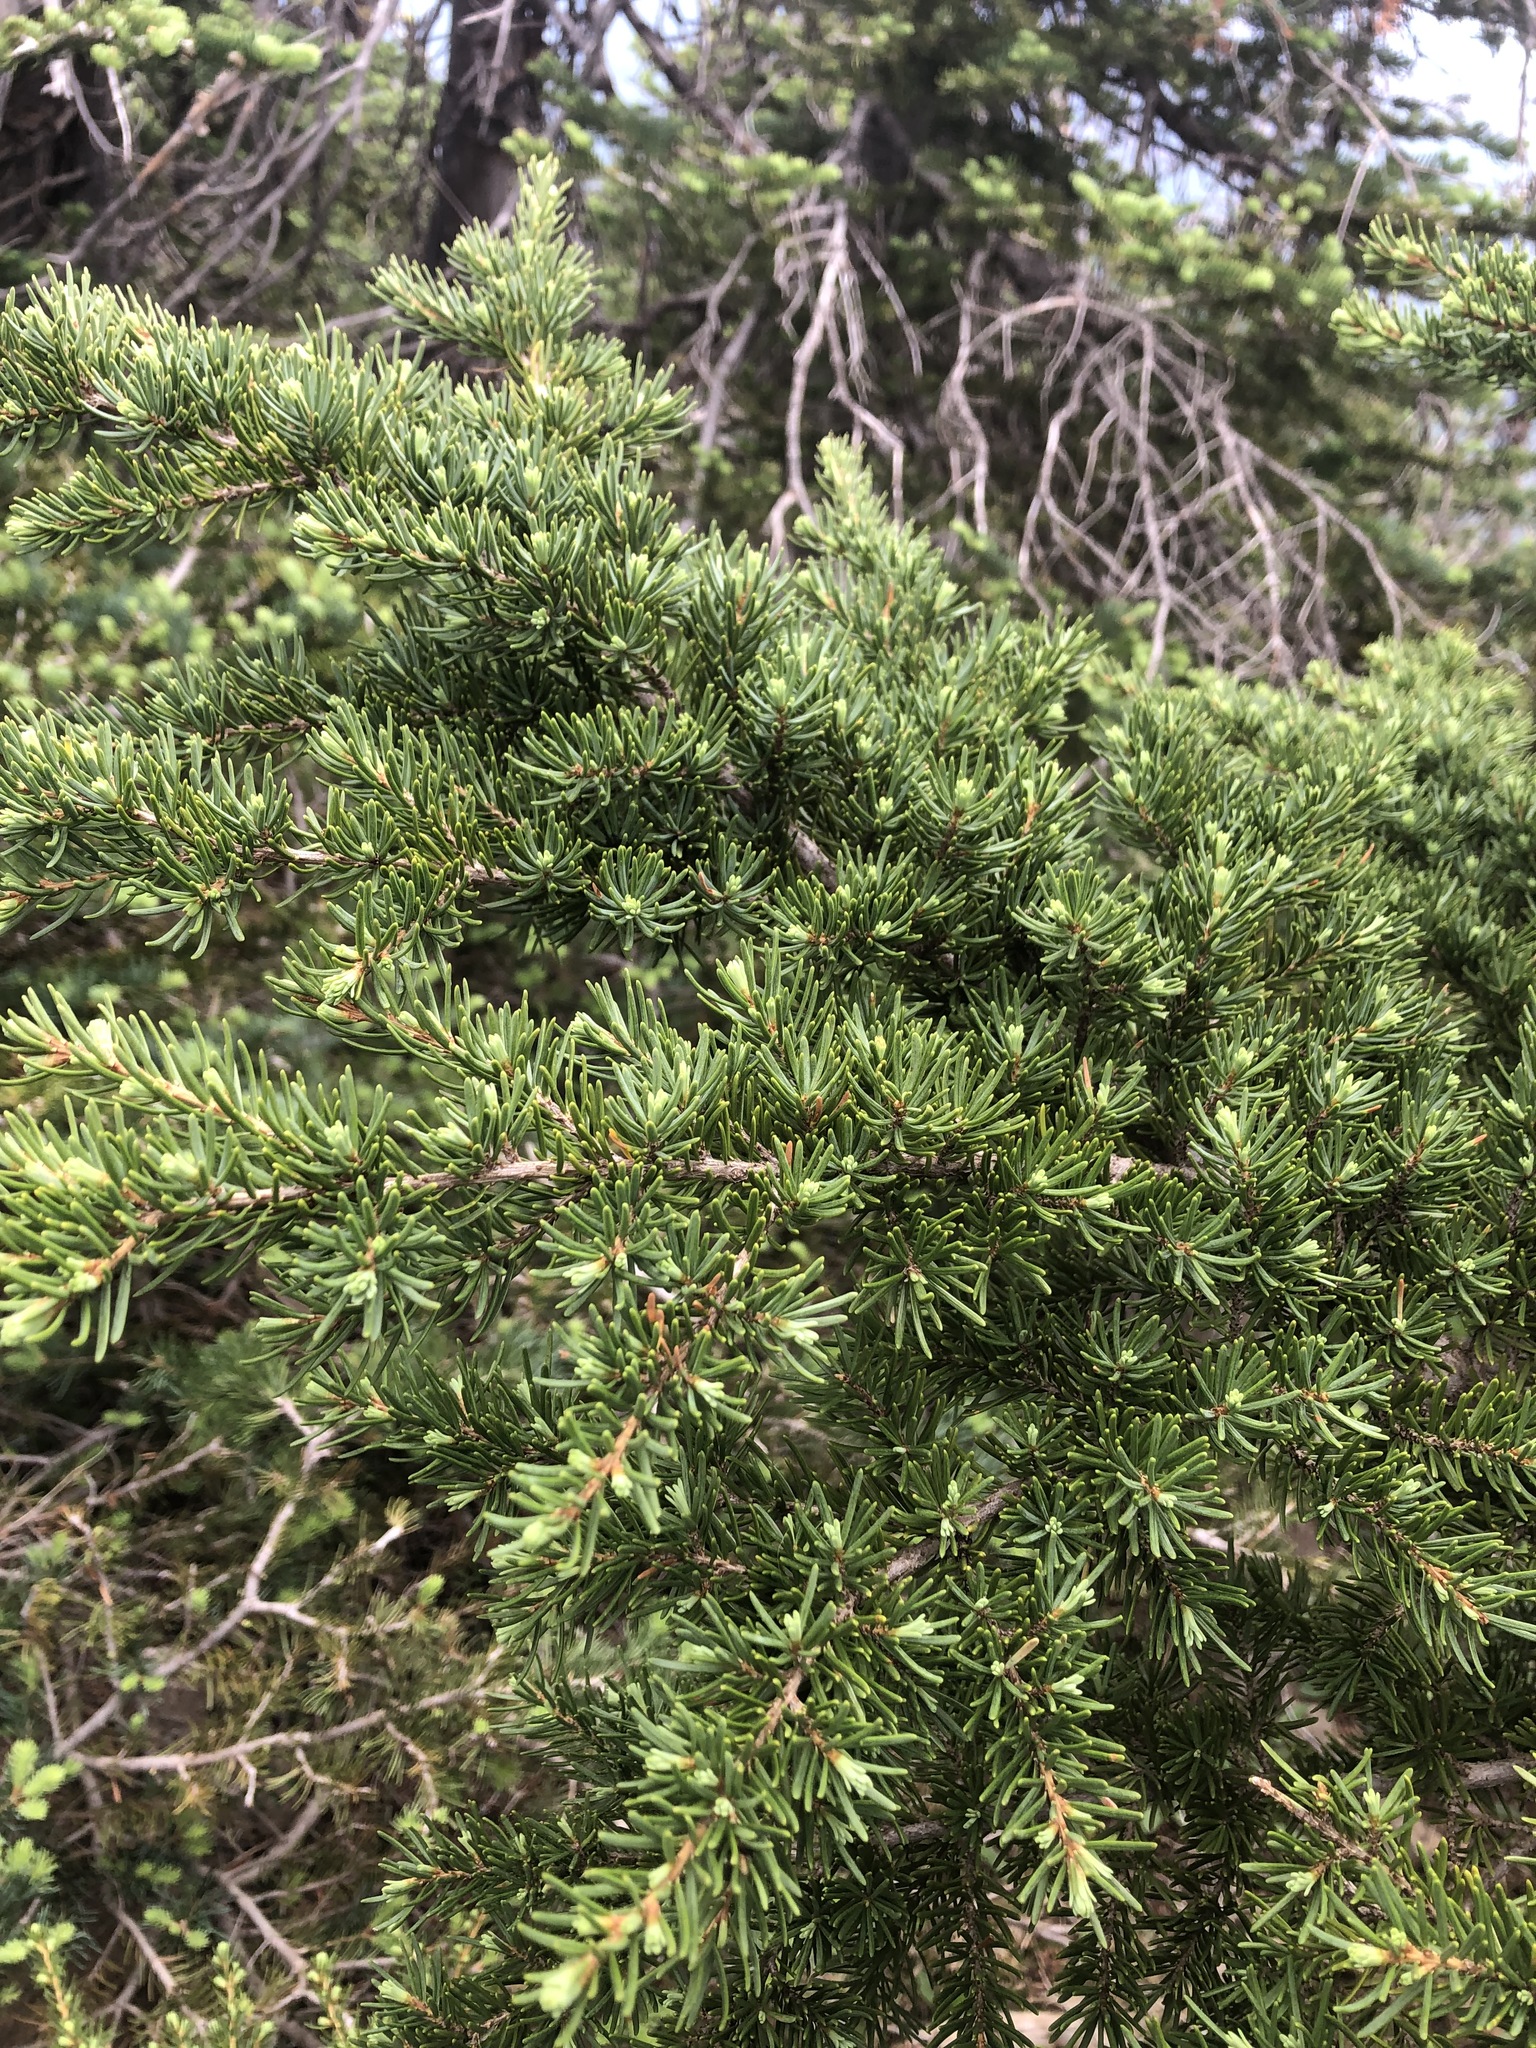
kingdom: Plantae
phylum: Tracheophyta
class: Pinopsida
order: Pinales
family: Pinaceae
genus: Tsuga
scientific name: Tsuga mertensiana
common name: Mountain hemlock
